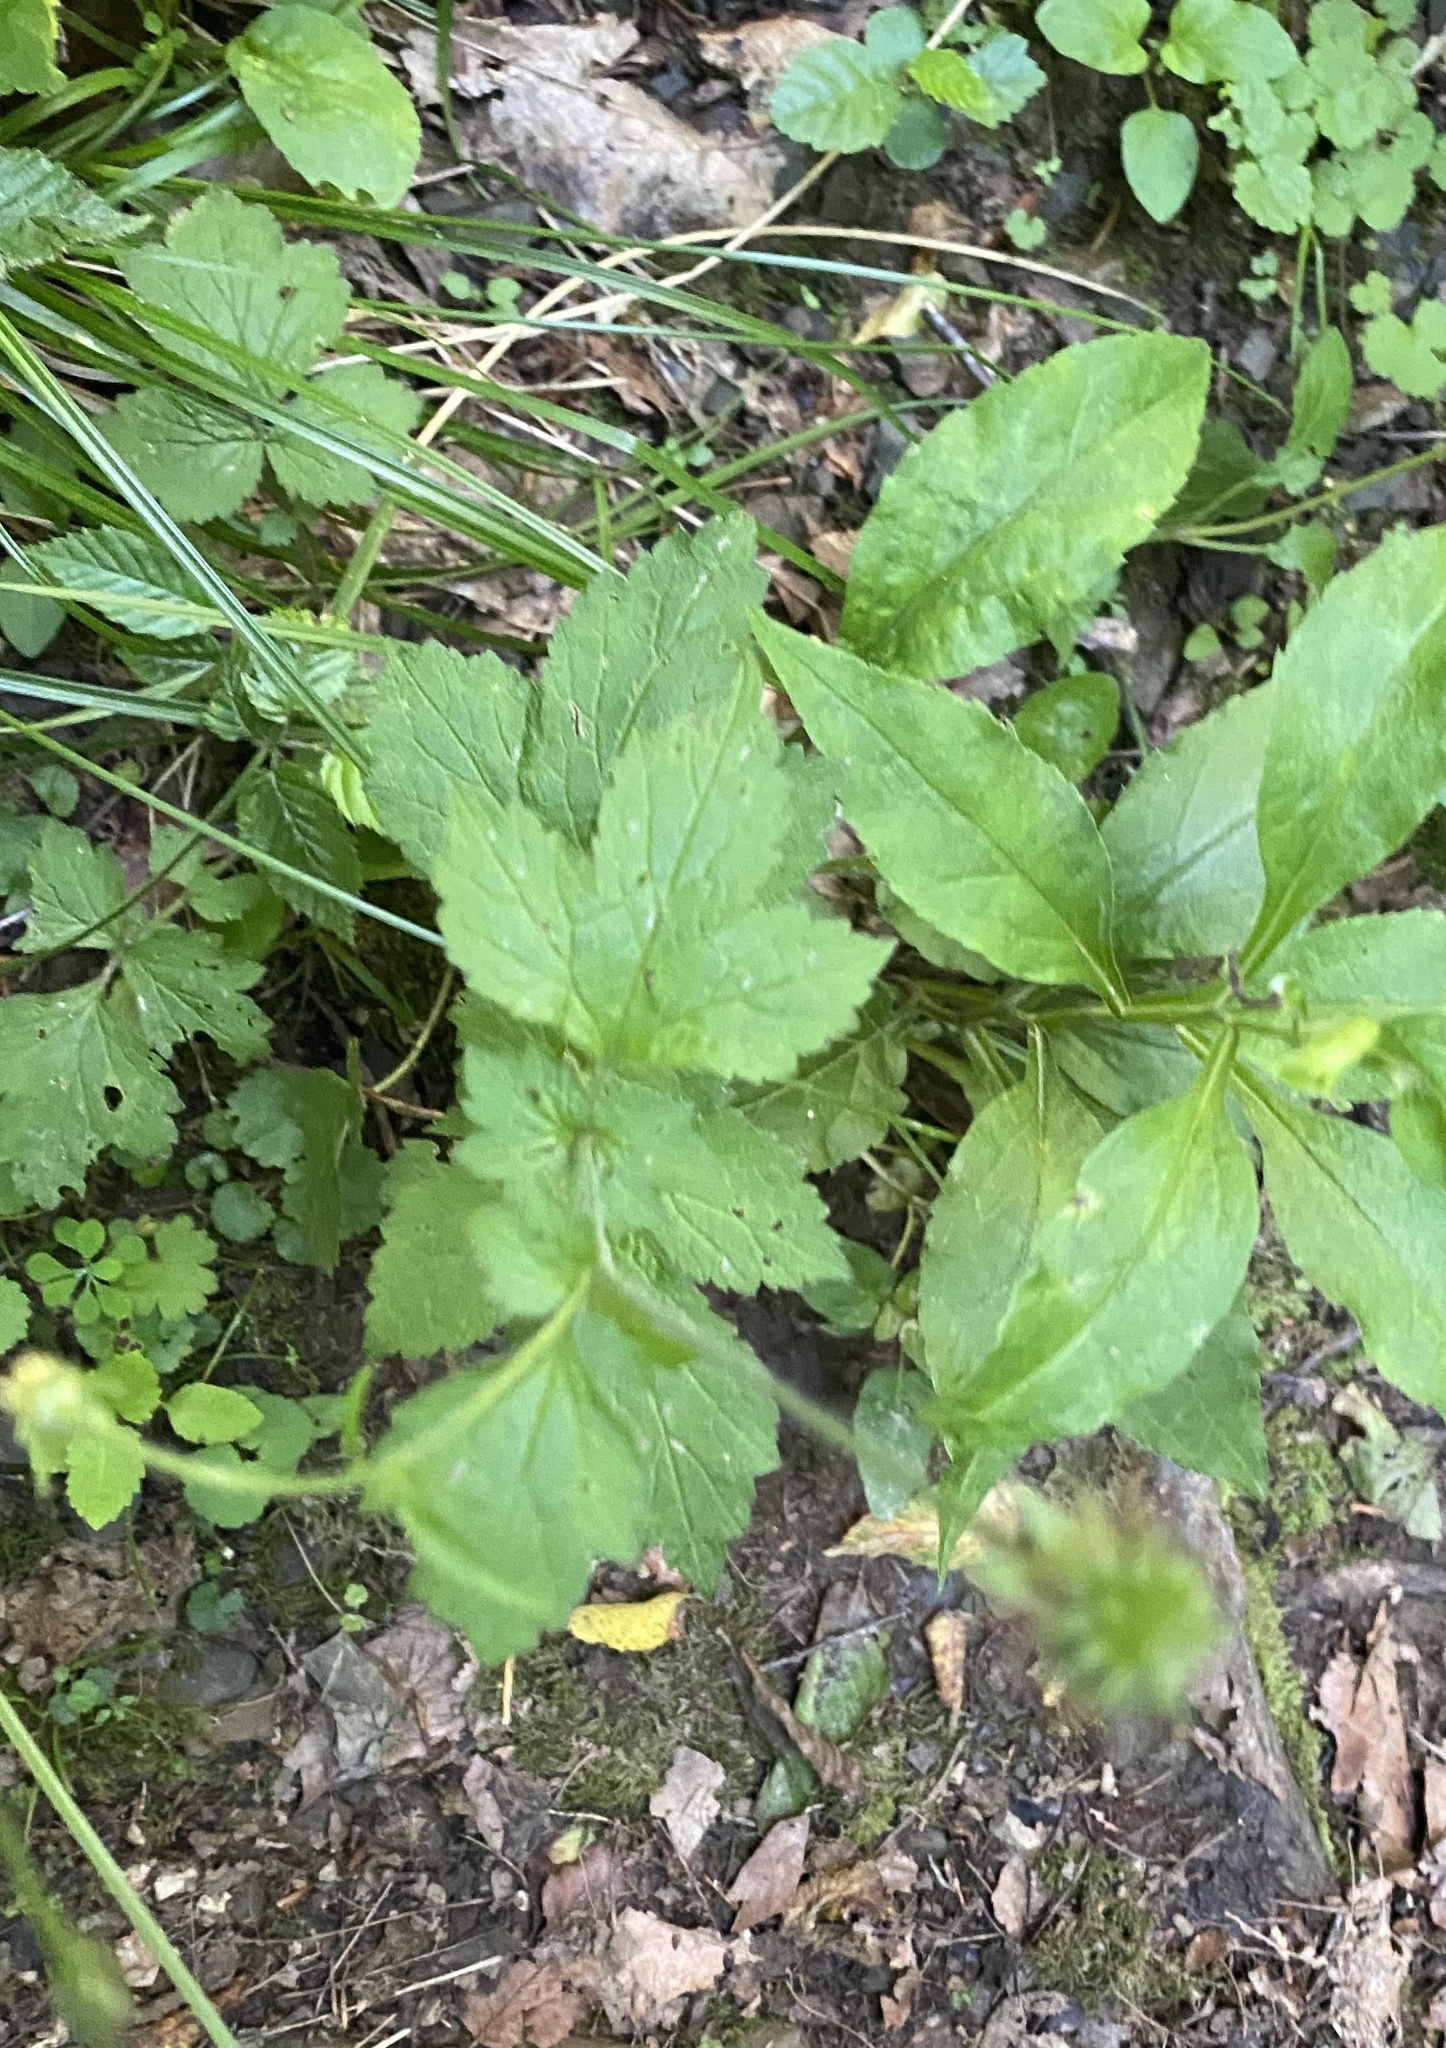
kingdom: Plantae
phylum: Tracheophyta
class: Magnoliopsida
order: Rosales
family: Rosaceae
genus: Geum
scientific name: Geum urbanum
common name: Wood avens
